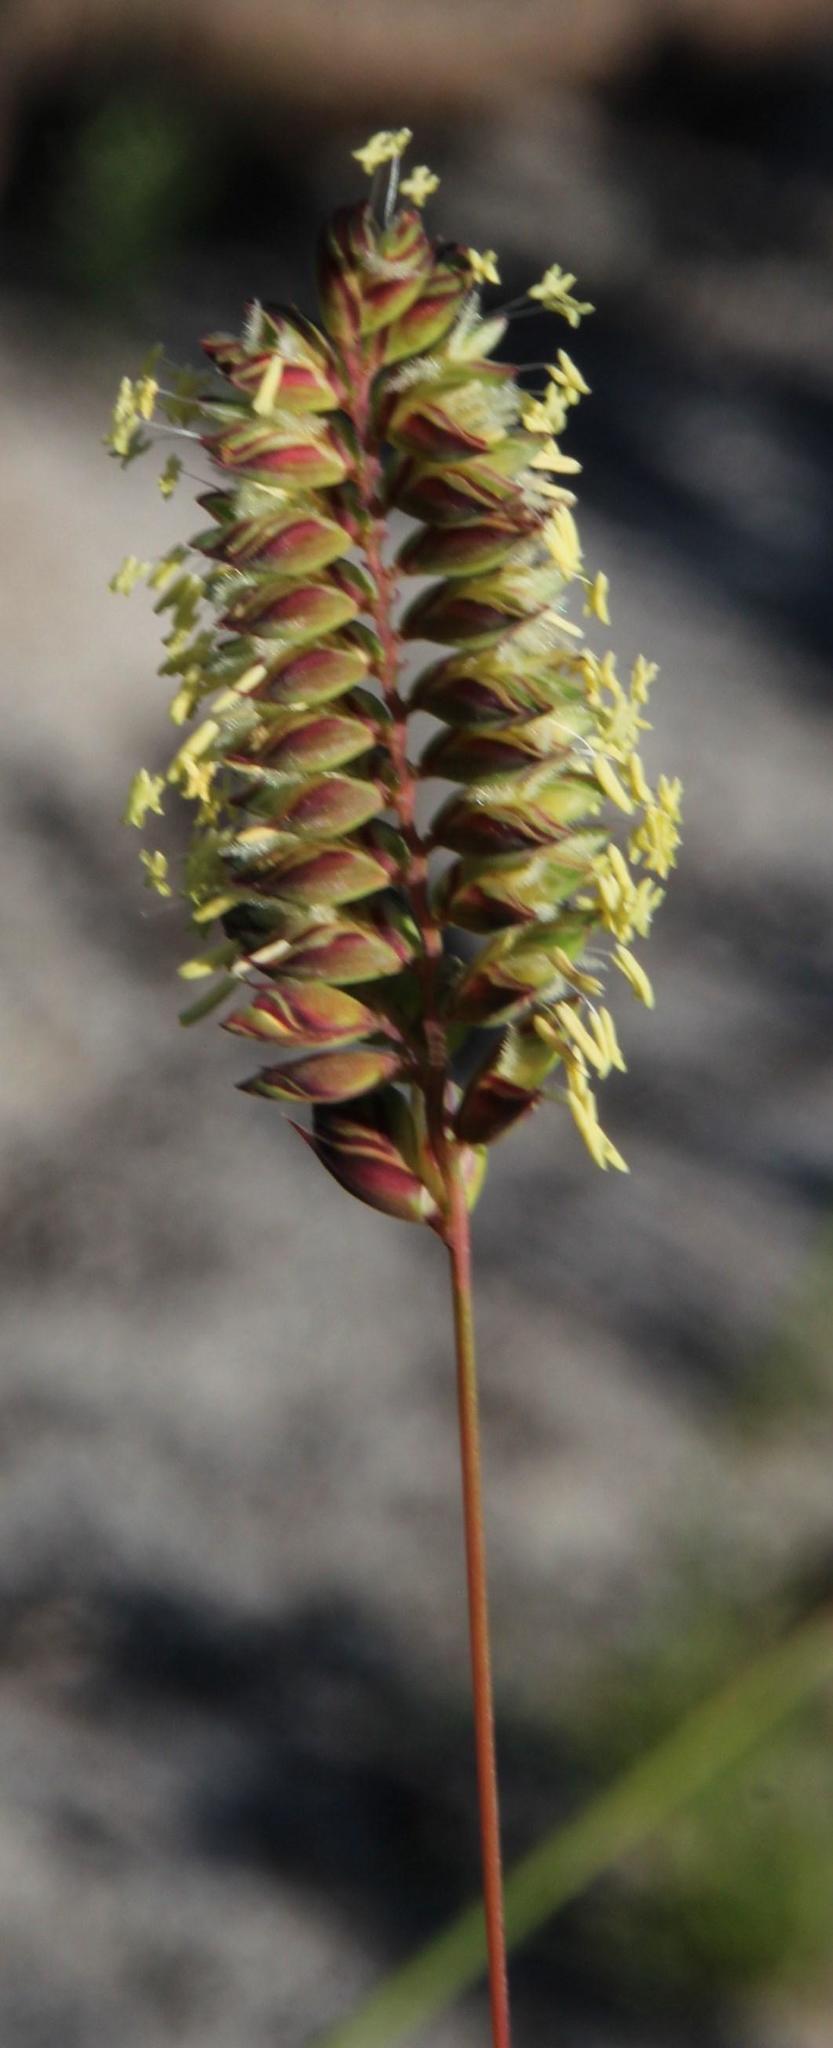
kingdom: Plantae
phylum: Tracheophyta
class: Liliopsida
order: Poales
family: Poaceae
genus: Tribolium
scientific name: Tribolium uniolae
